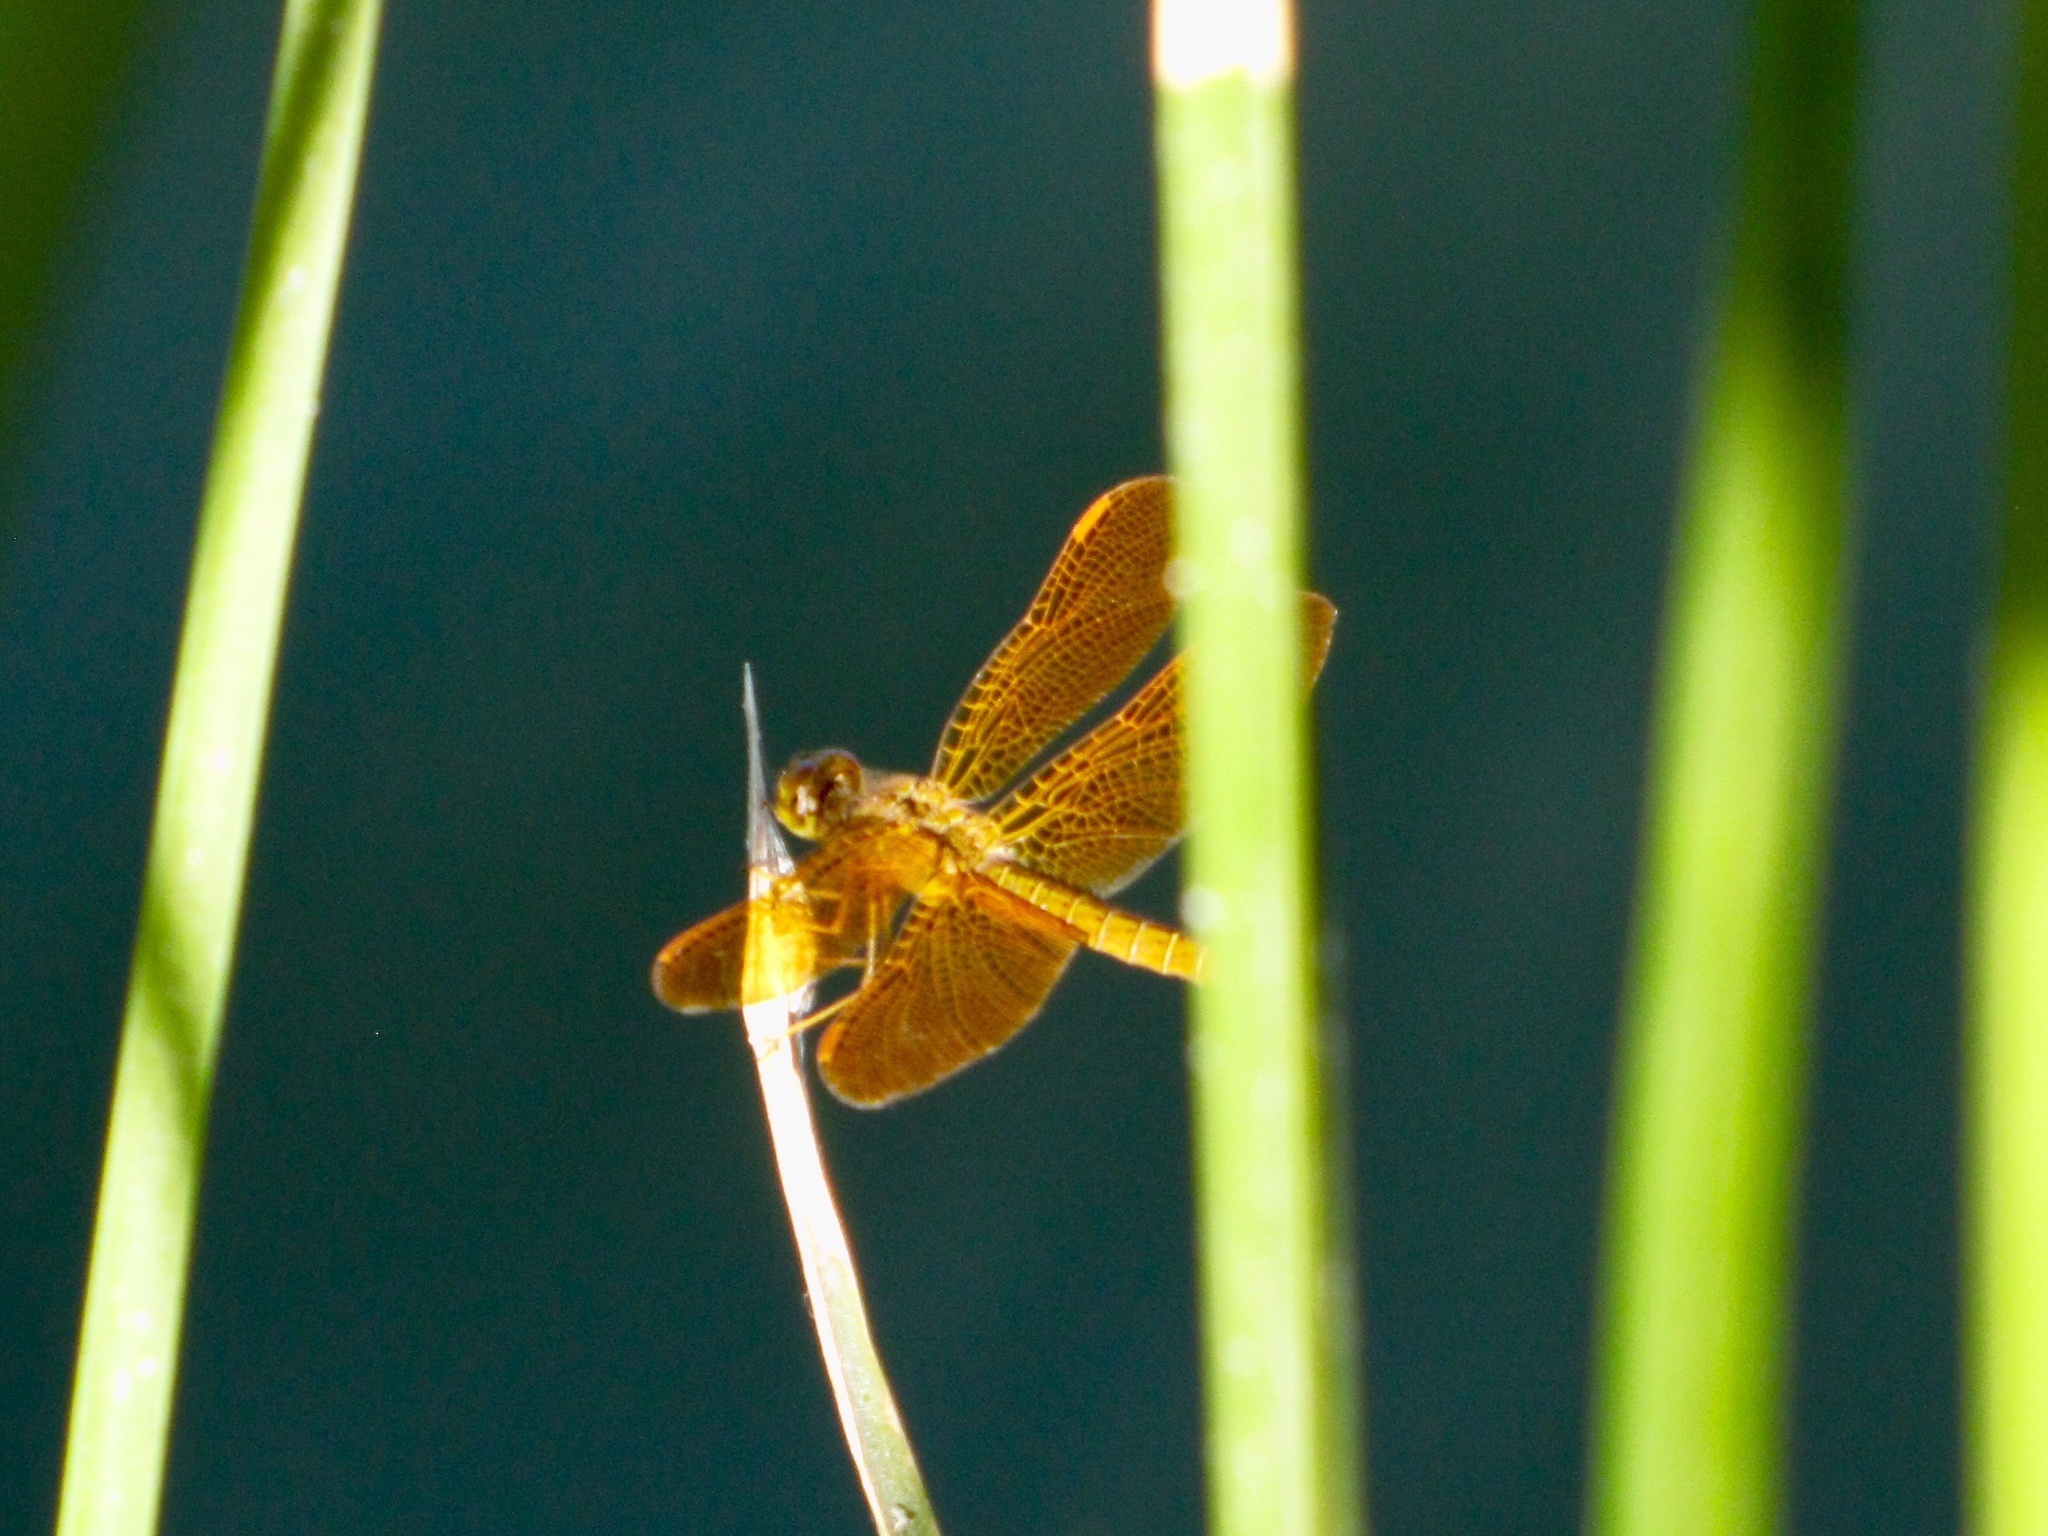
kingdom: Animalia
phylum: Arthropoda
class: Insecta
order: Odonata
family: Libellulidae
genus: Perithemis
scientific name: Perithemis intensa
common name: Mexican amberwing
